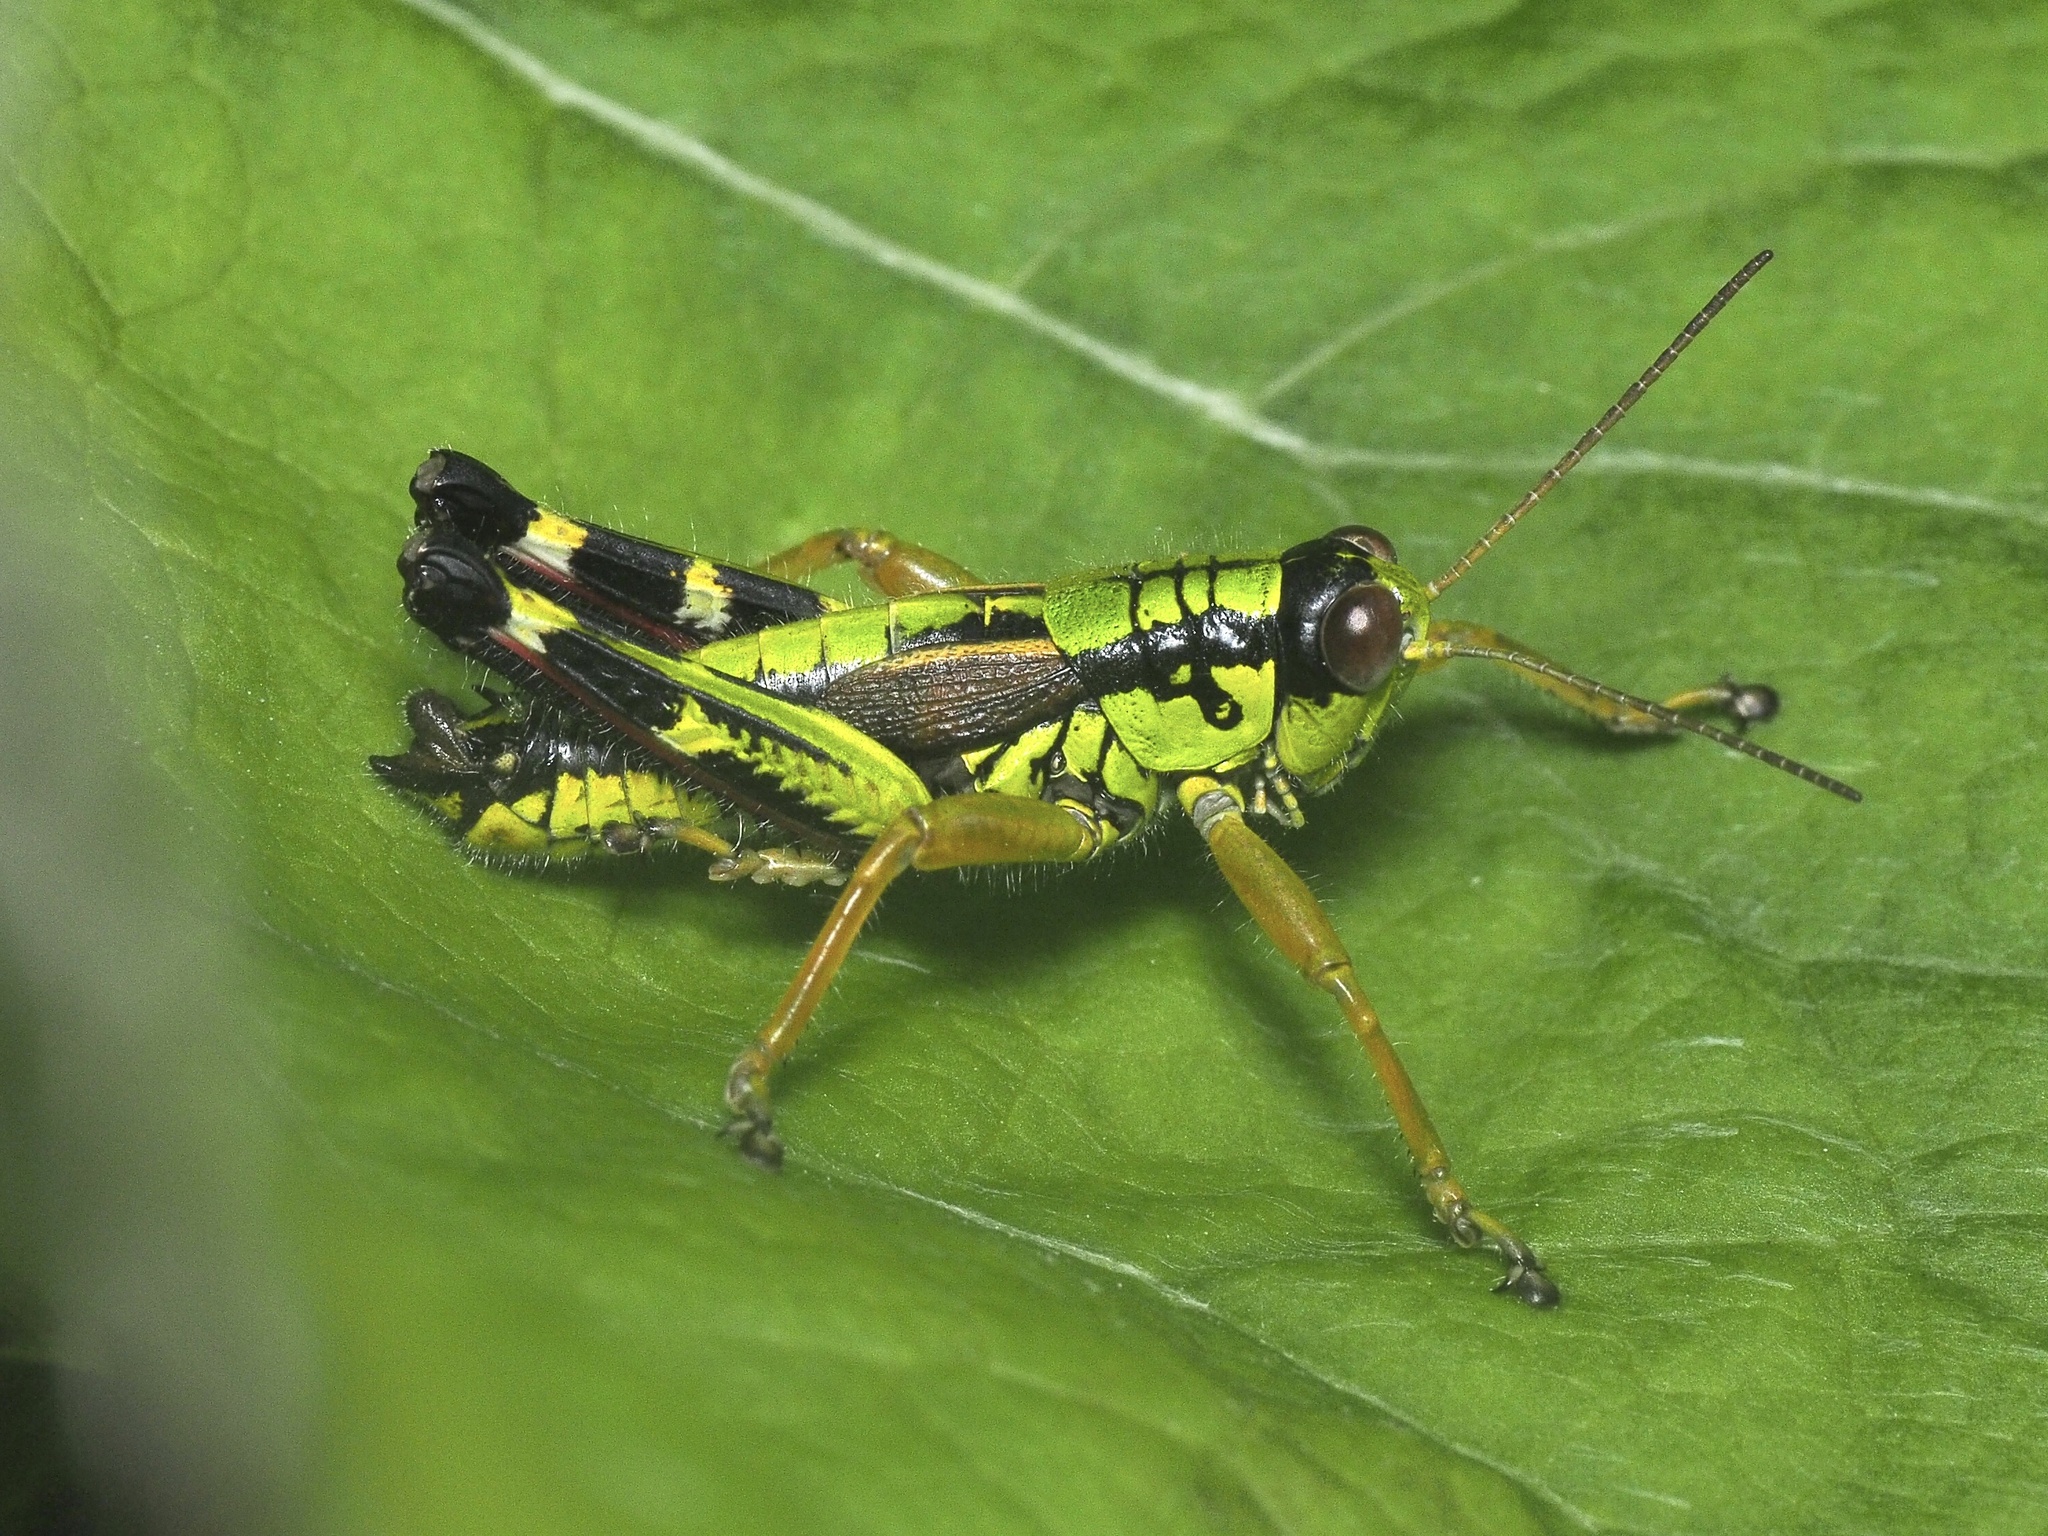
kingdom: Animalia
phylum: Arthropoda
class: Insecta
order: Orthoptera
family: Acrididae
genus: Miramella
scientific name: Miramella alpina
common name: Green mountain grasshopper
